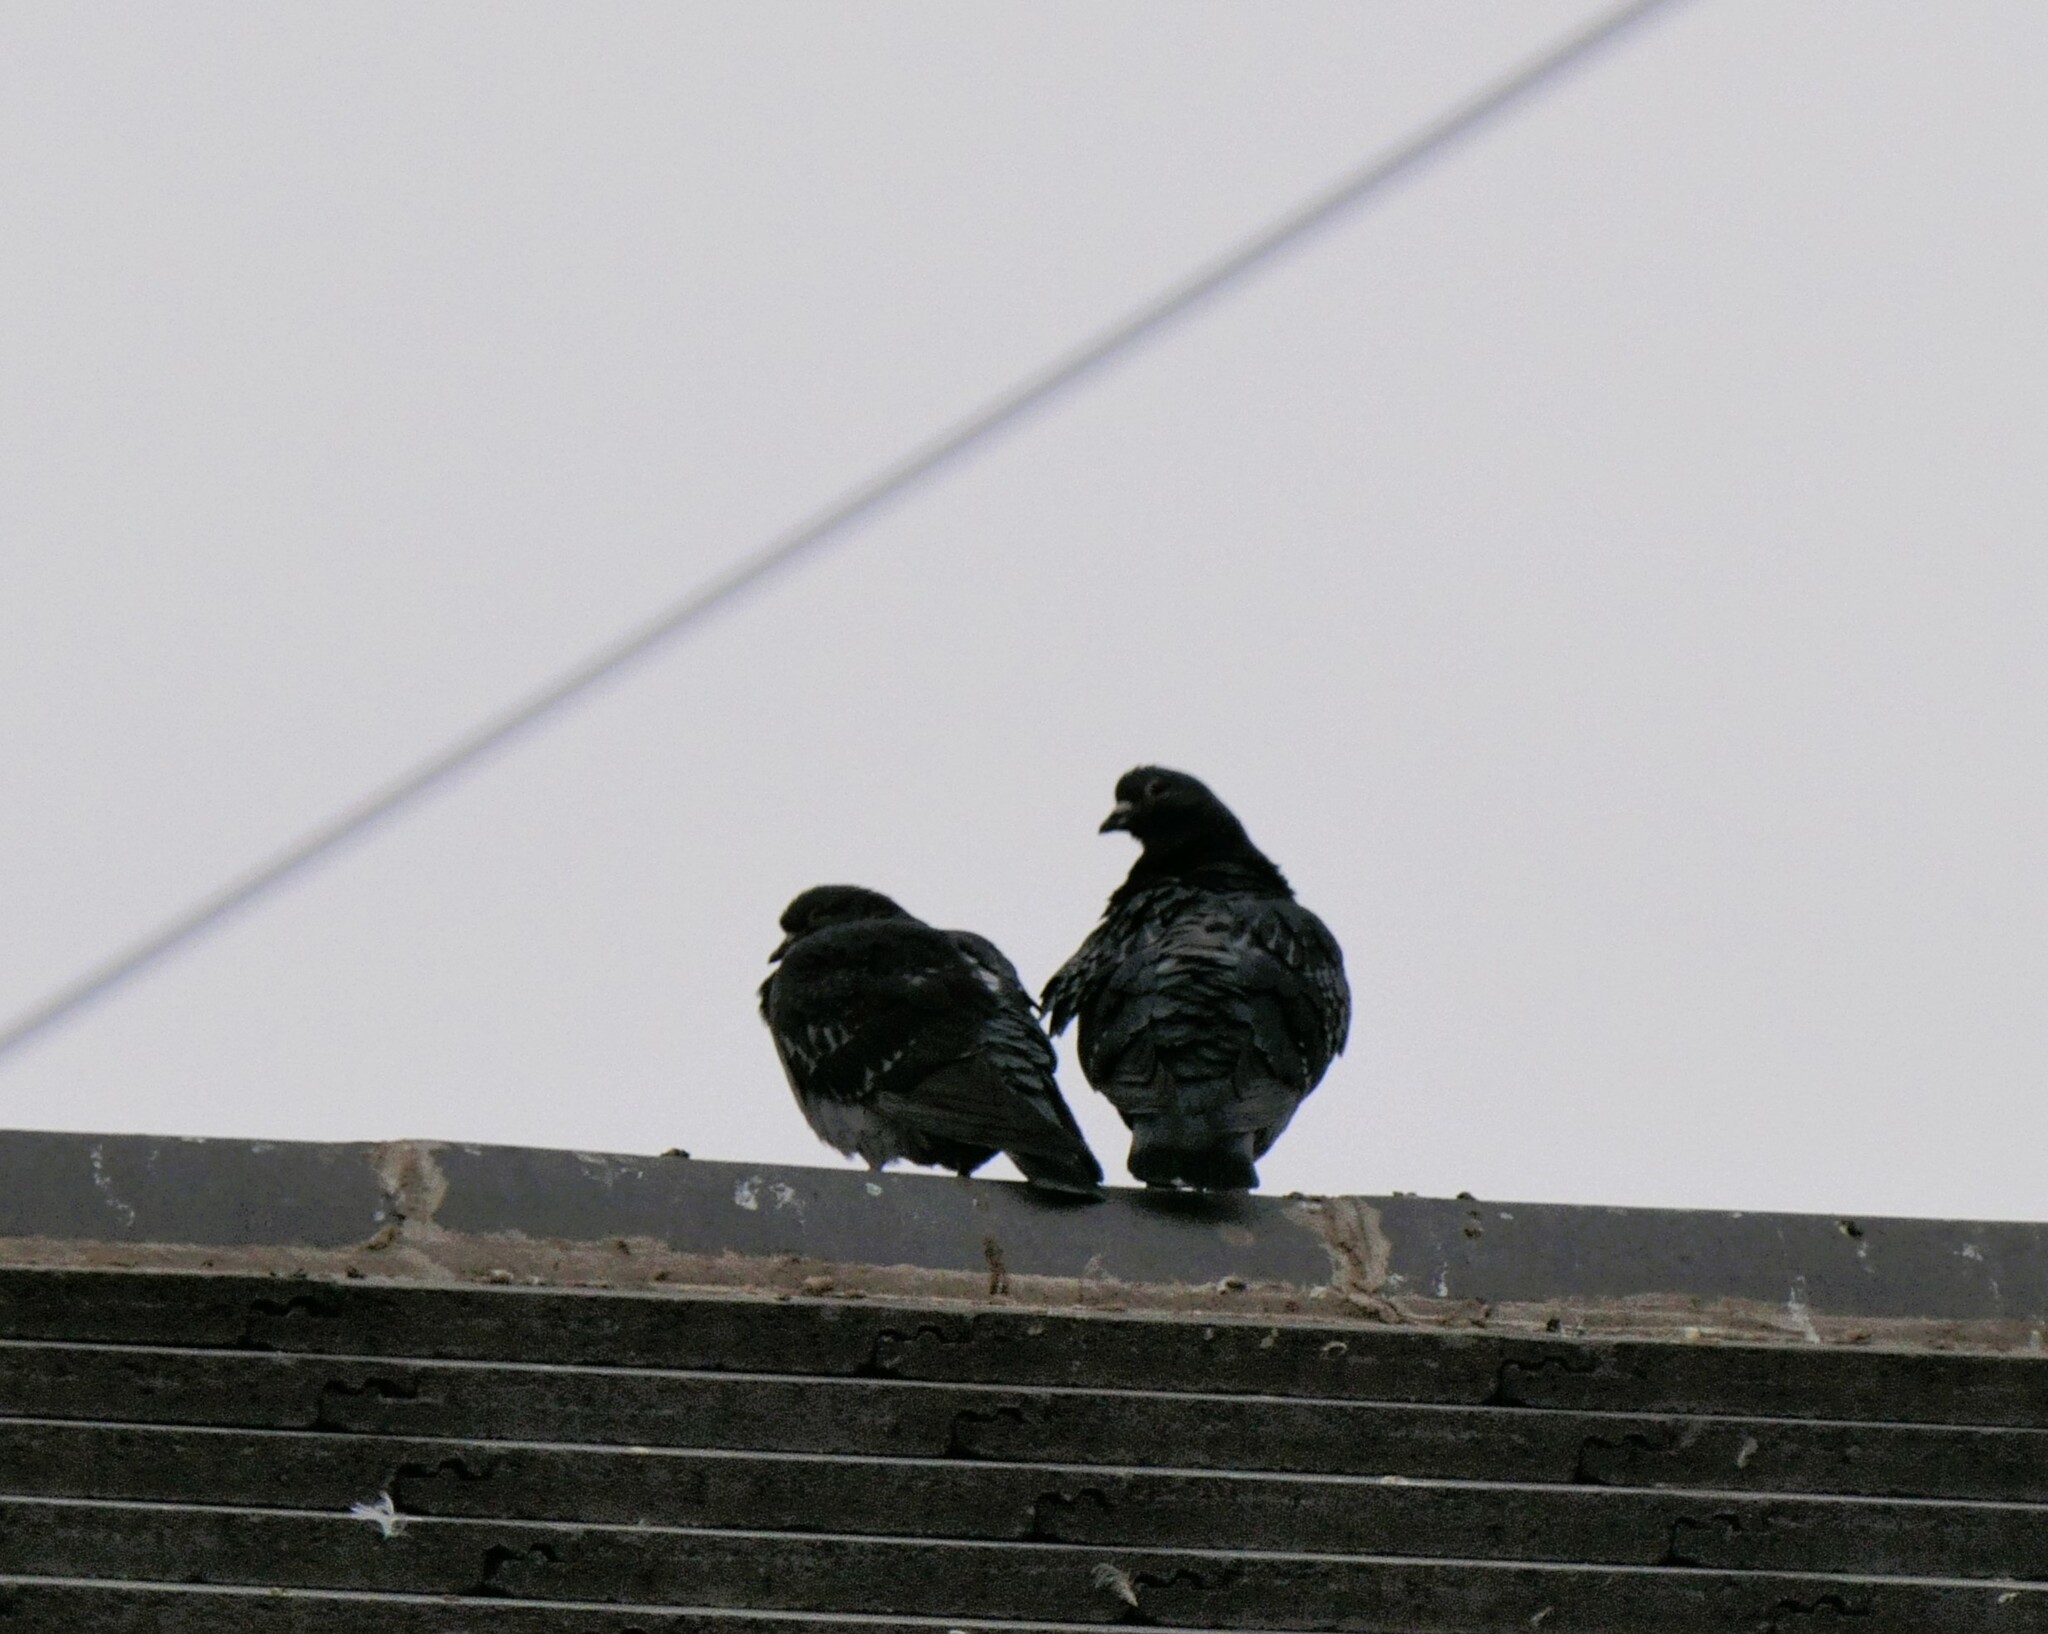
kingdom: Animalia
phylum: Chordata
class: Aves
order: Columbiformes
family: Columbidae
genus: Columba
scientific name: Columba livia
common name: Rock pigeon
